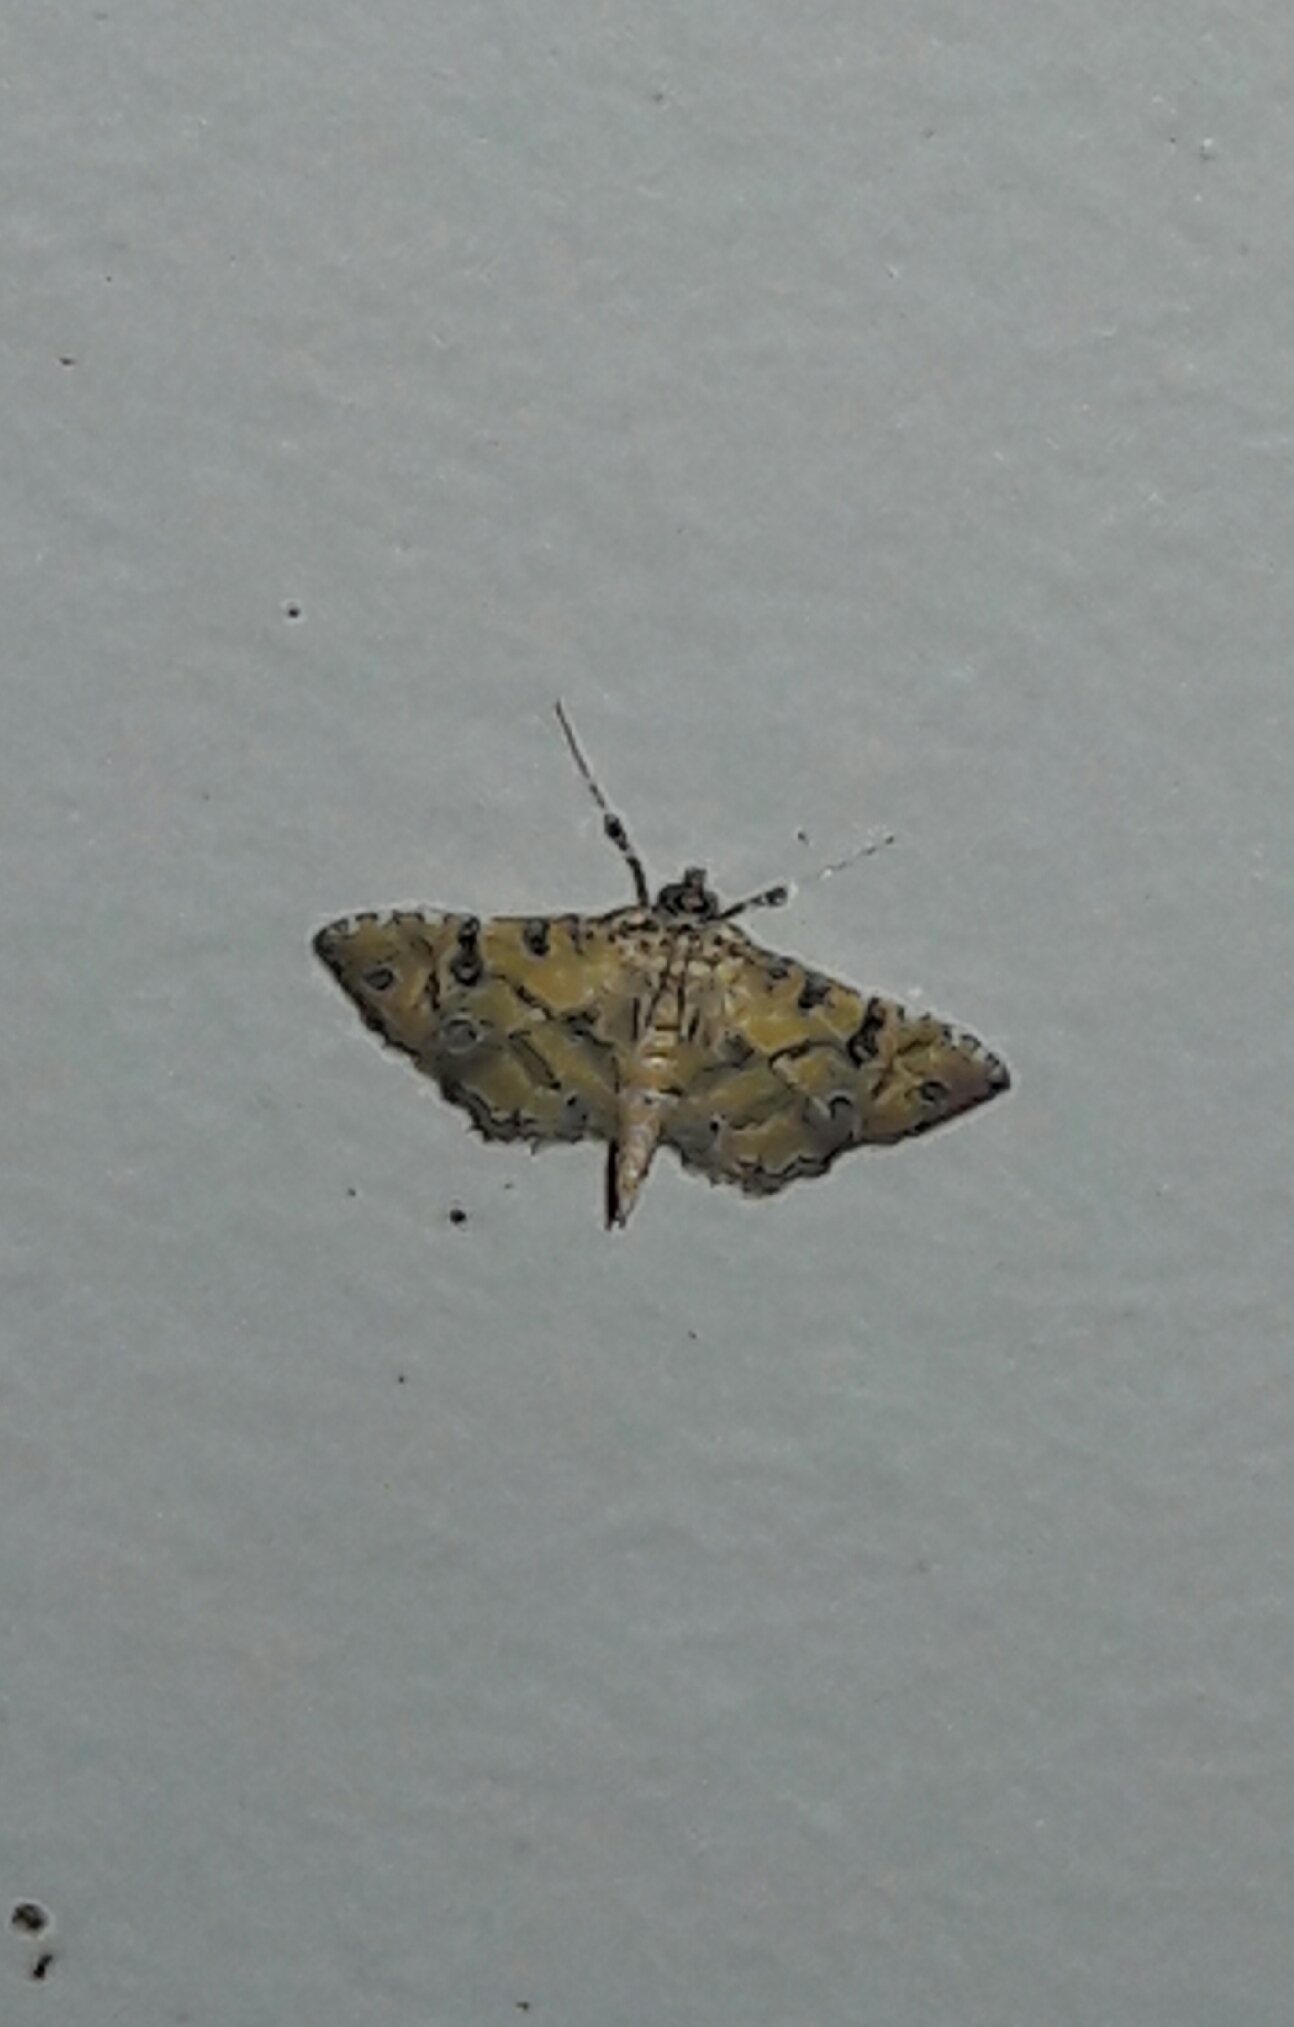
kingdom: Animalia
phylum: Arthropoda
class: Insecta
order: Lepidoptera
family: Crambidae
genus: Ommatospila
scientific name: Ommatospila narcaeusalis
